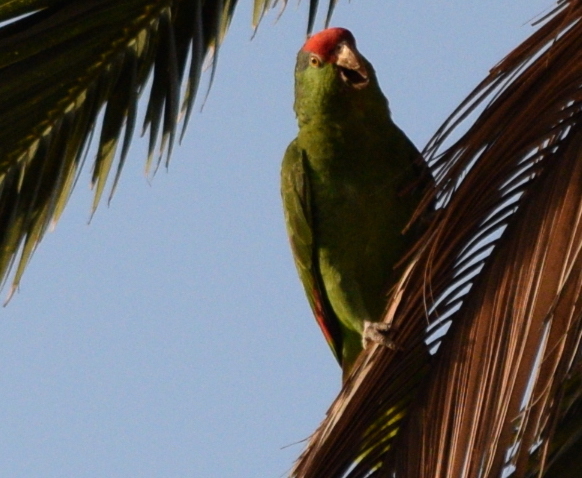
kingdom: Animalia
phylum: Chordata
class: Aves
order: Psittaciformes
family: Psittacidae
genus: Amazona
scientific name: Amazona viridigenalis
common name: Red-crowned amazon
